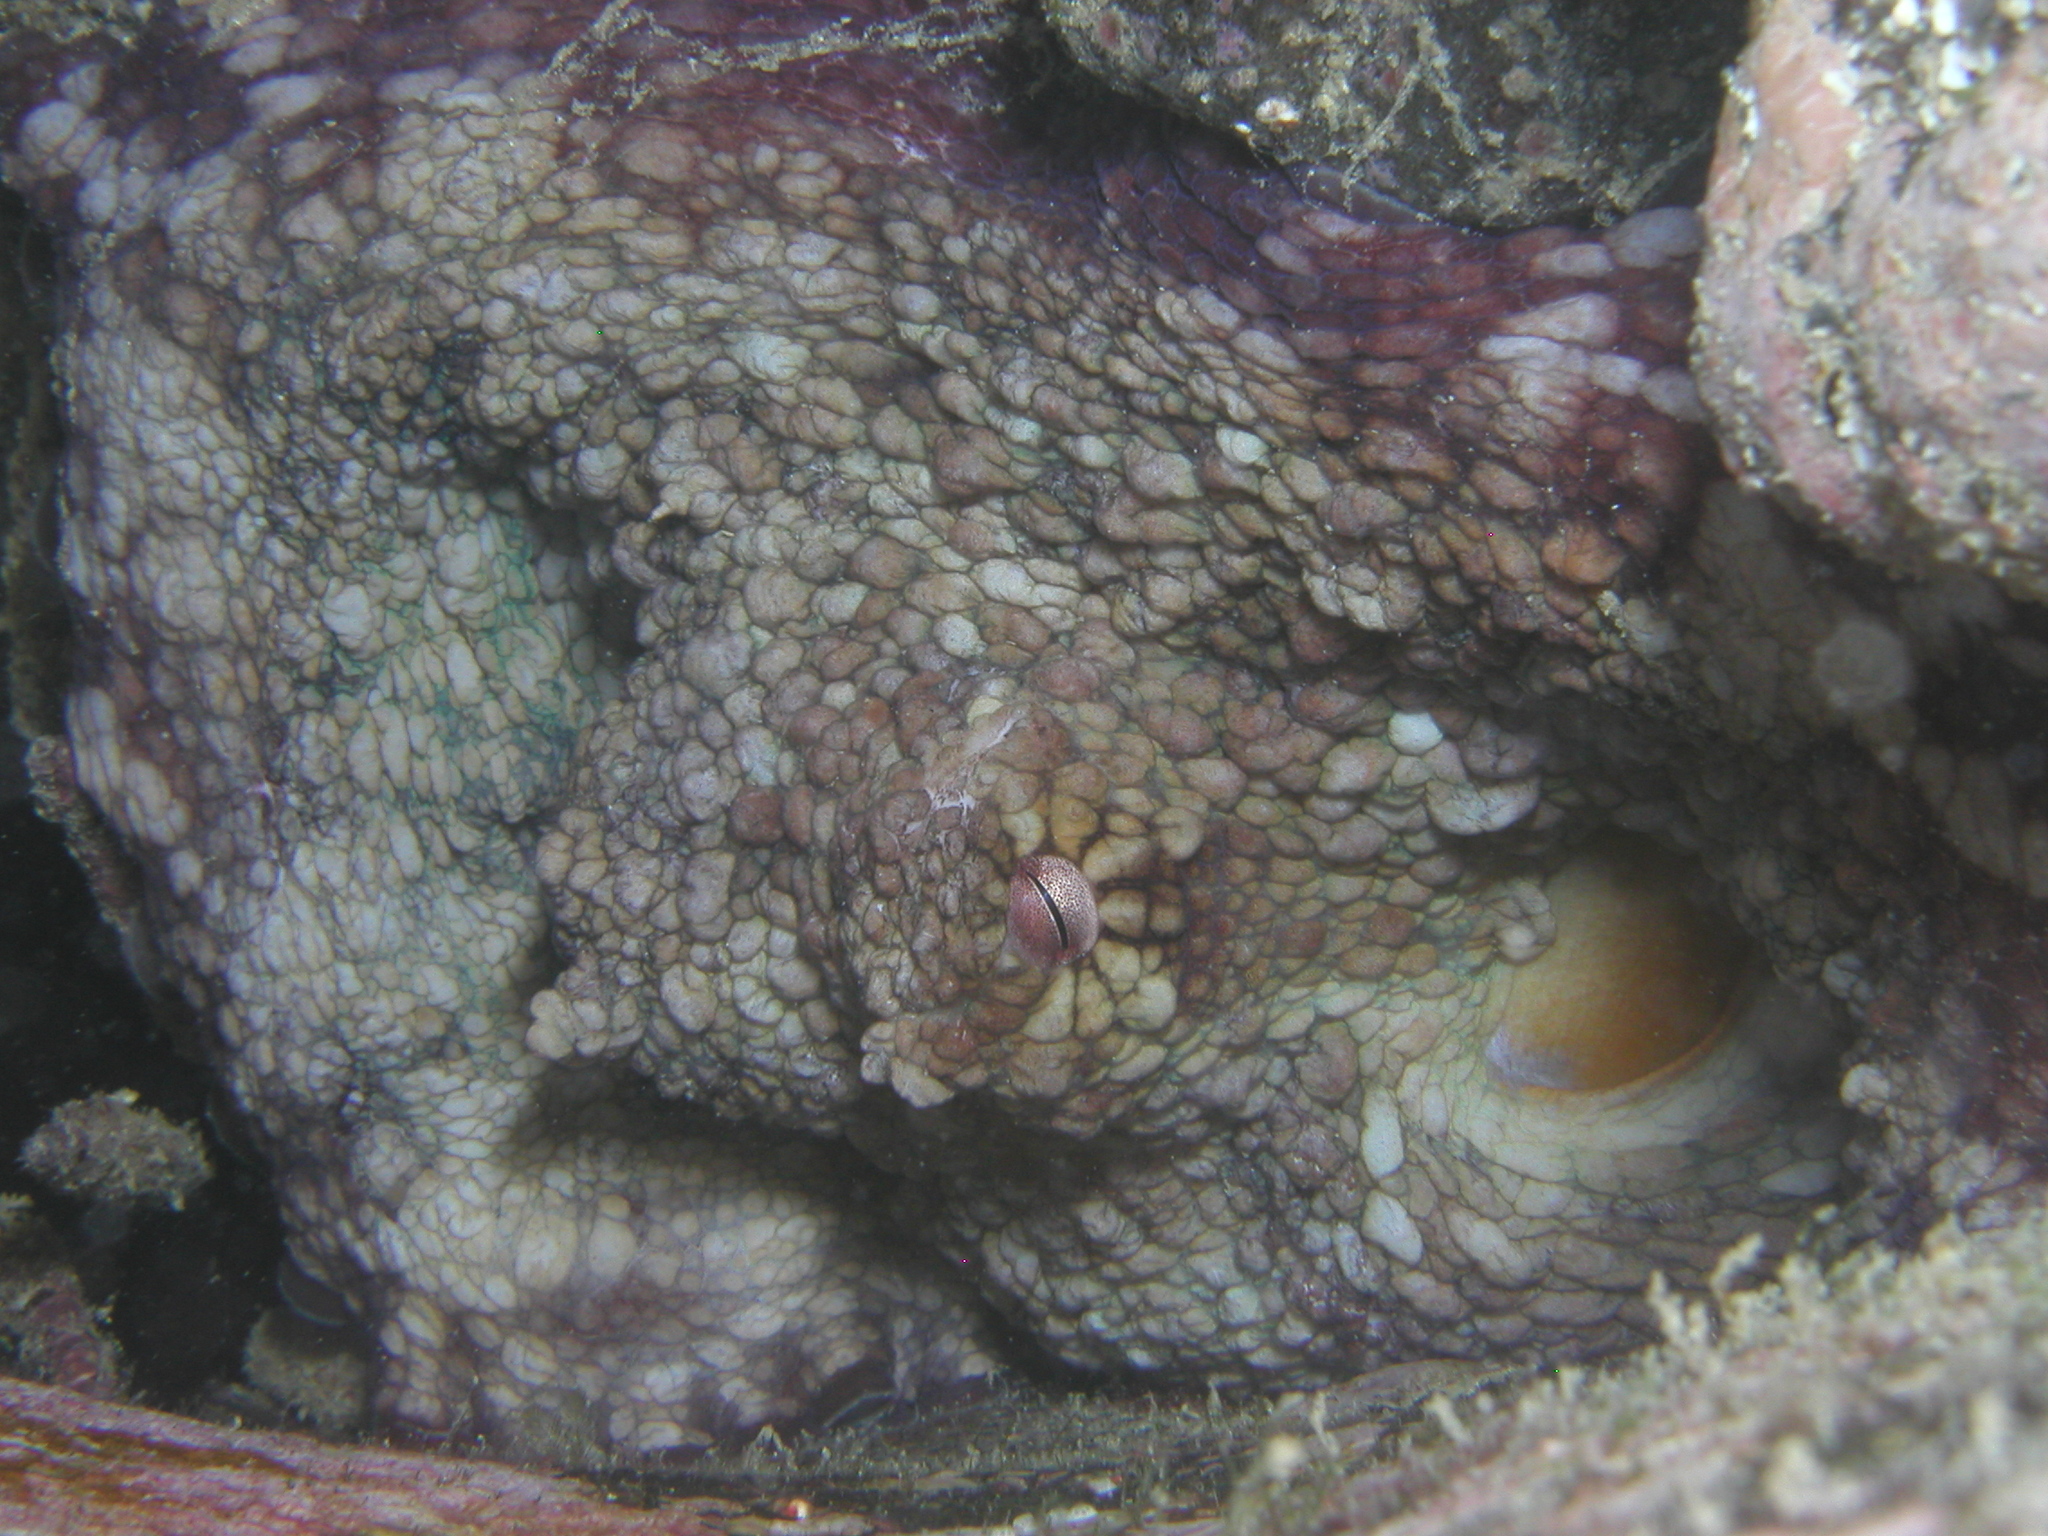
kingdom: Animalia
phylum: Mollusca
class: Cephalopoda
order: Octopoda
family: Octopodidae
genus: Octopus
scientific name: Octopus oculifer
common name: Reef octopus
